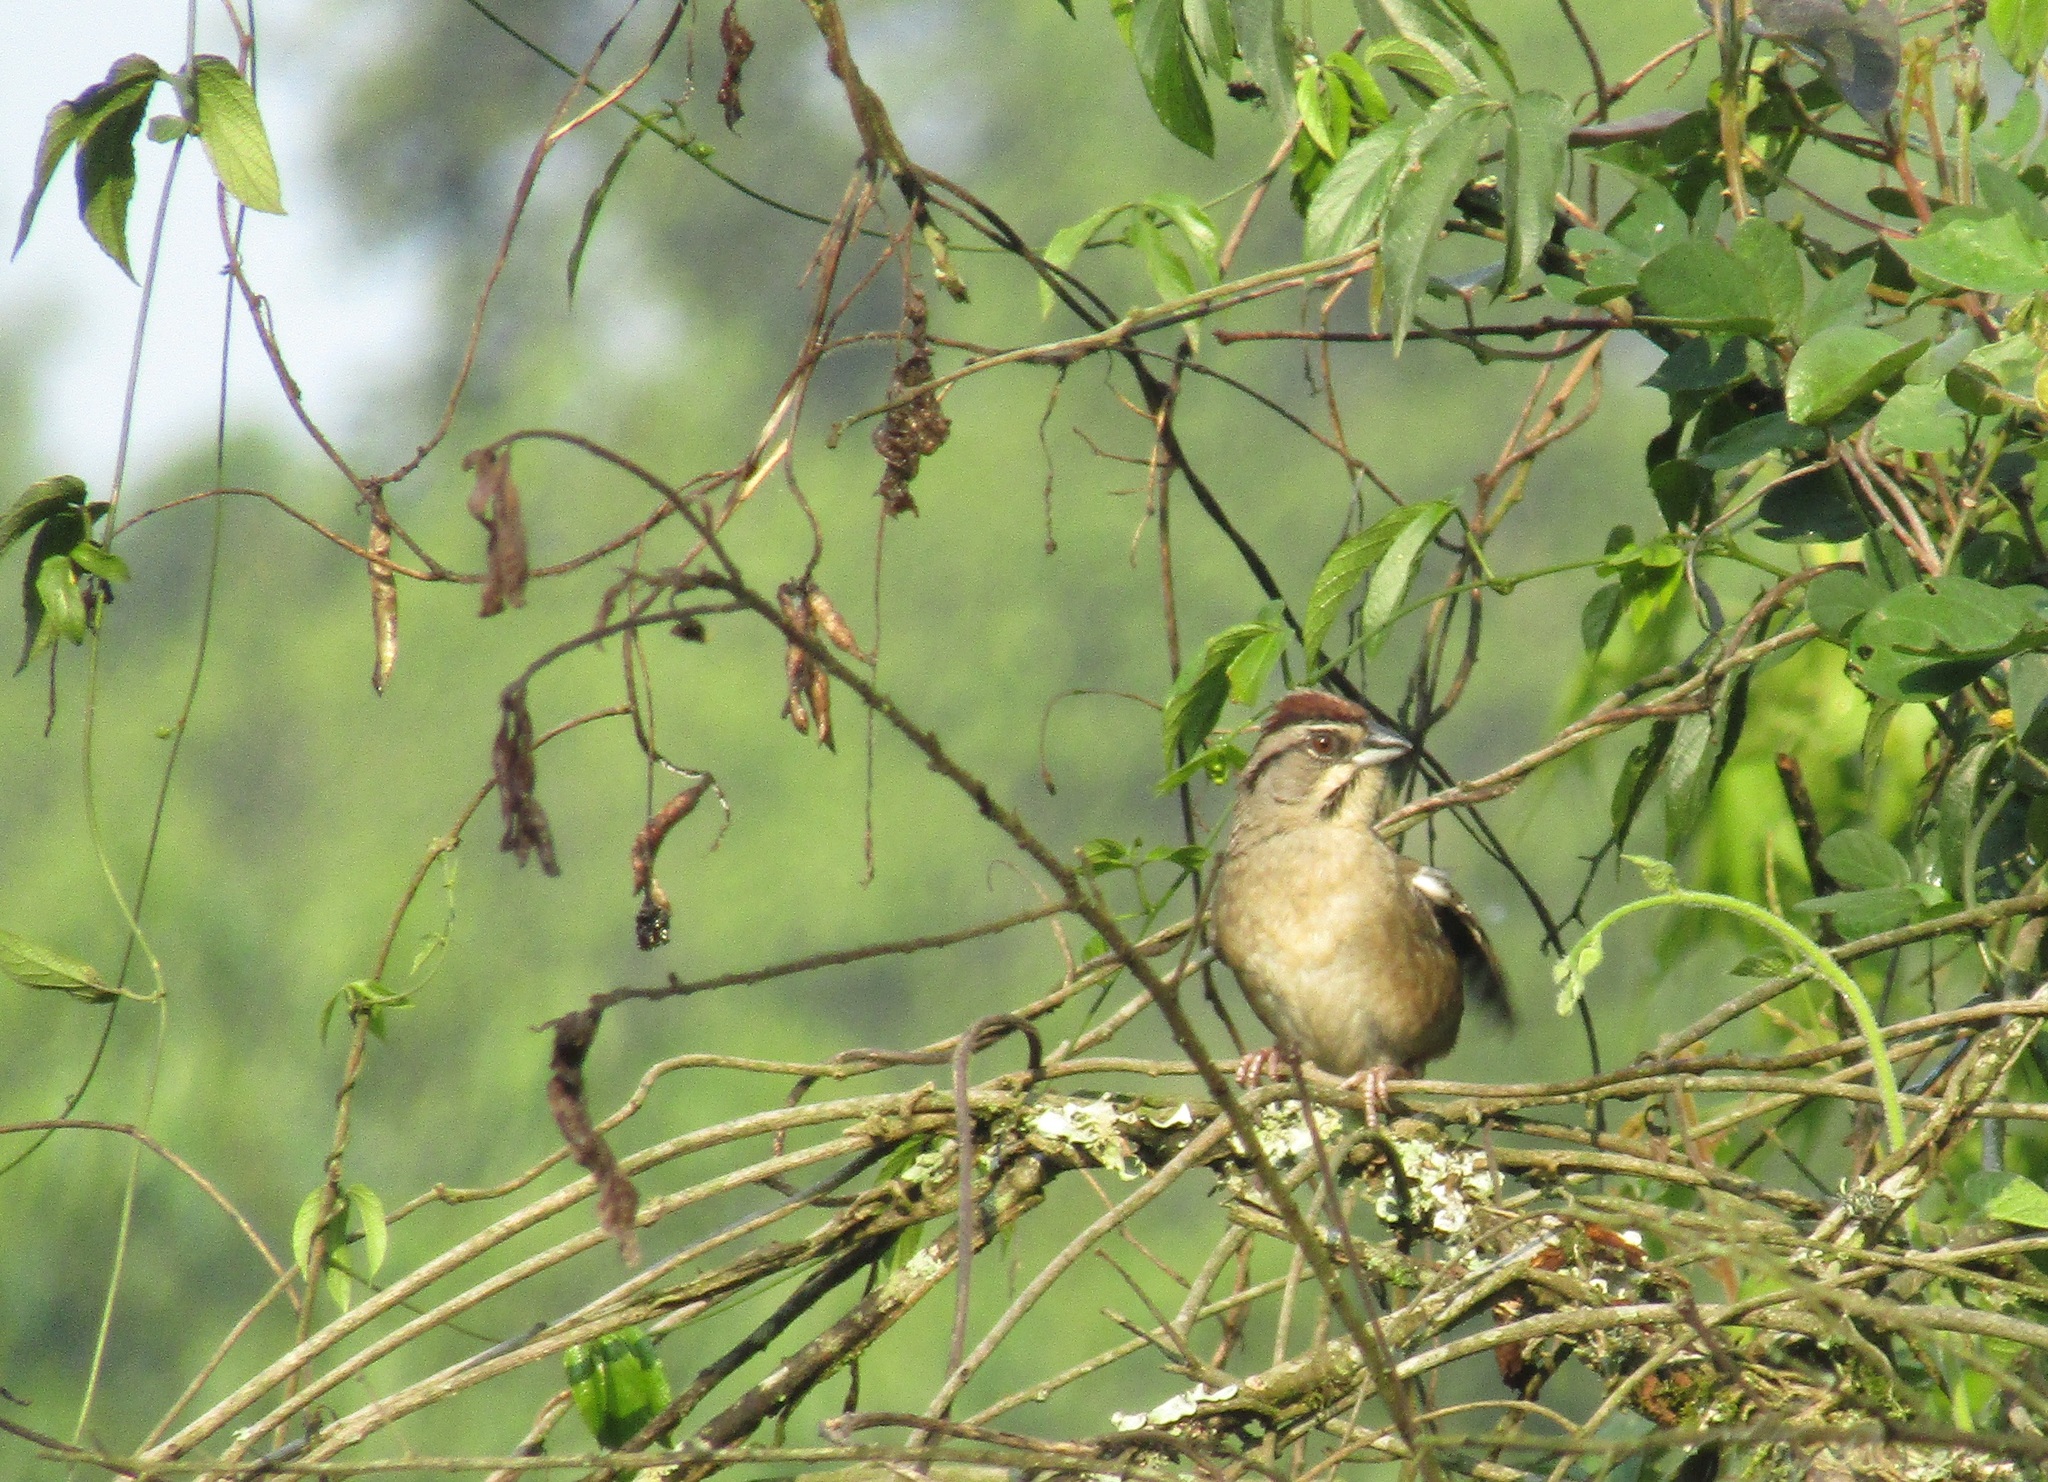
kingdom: Animalia
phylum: Chordata
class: Aves
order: Passeriformes
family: Passerellidae
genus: Aimophila
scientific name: Aimophila rufescens
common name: Rusty sparrow
